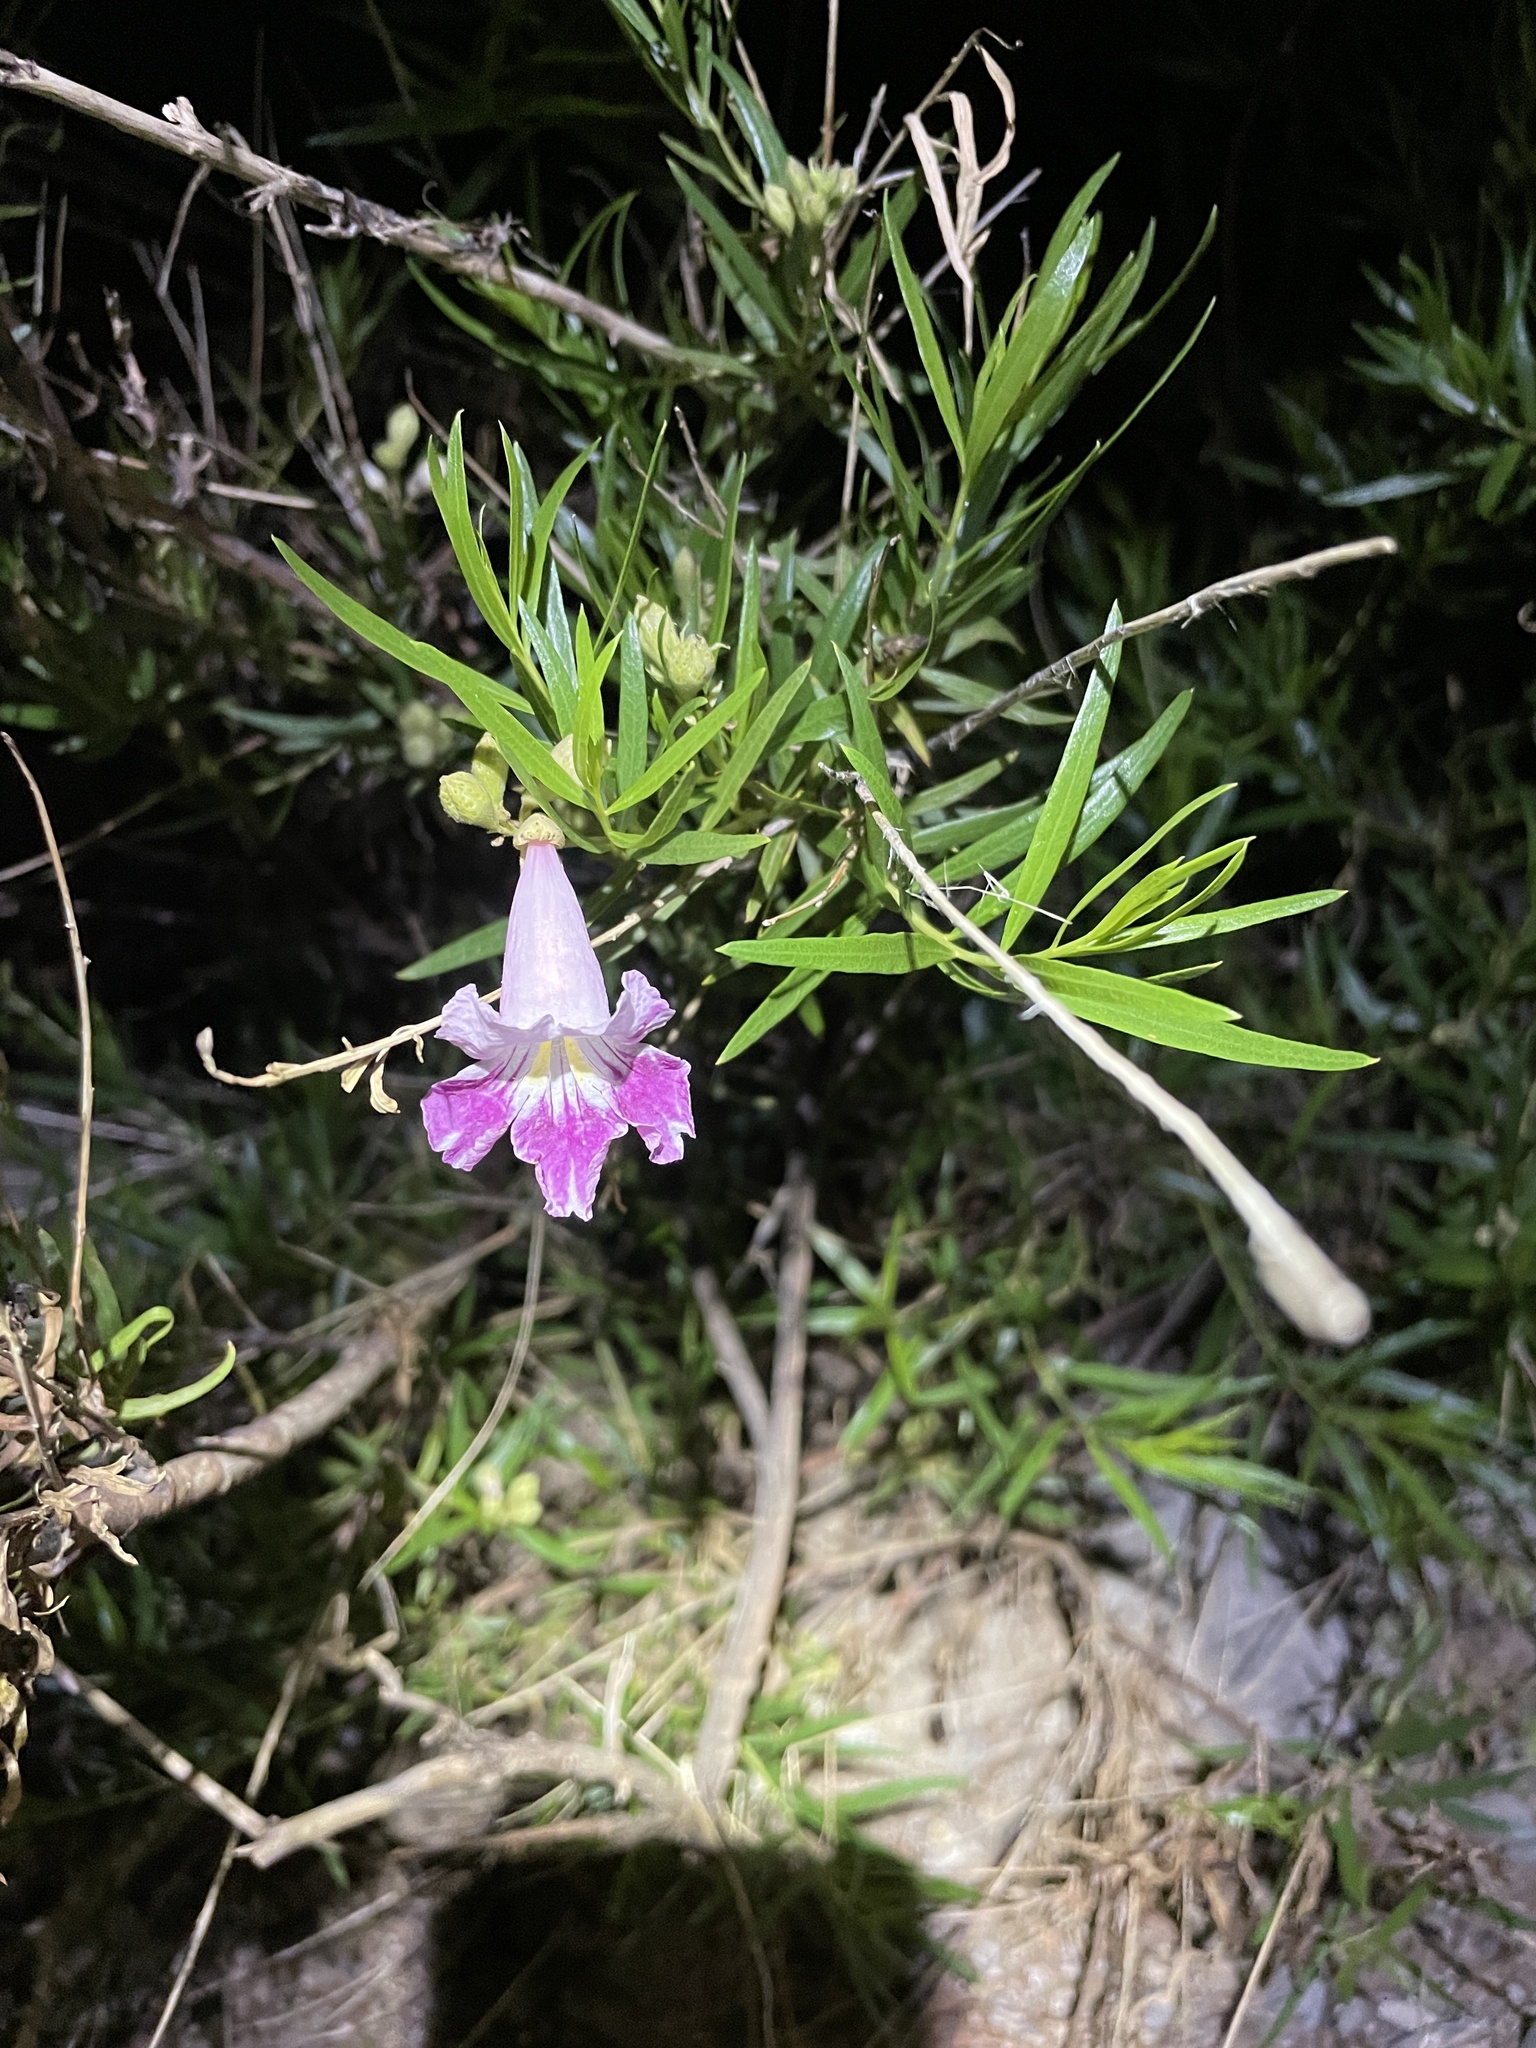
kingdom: Plantae
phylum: Tracheophyta
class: Magnoliopsida
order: Lamiales
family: Bignoniaceae
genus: Chilopsis
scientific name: Chilopsis linearis
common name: Desert-willow
